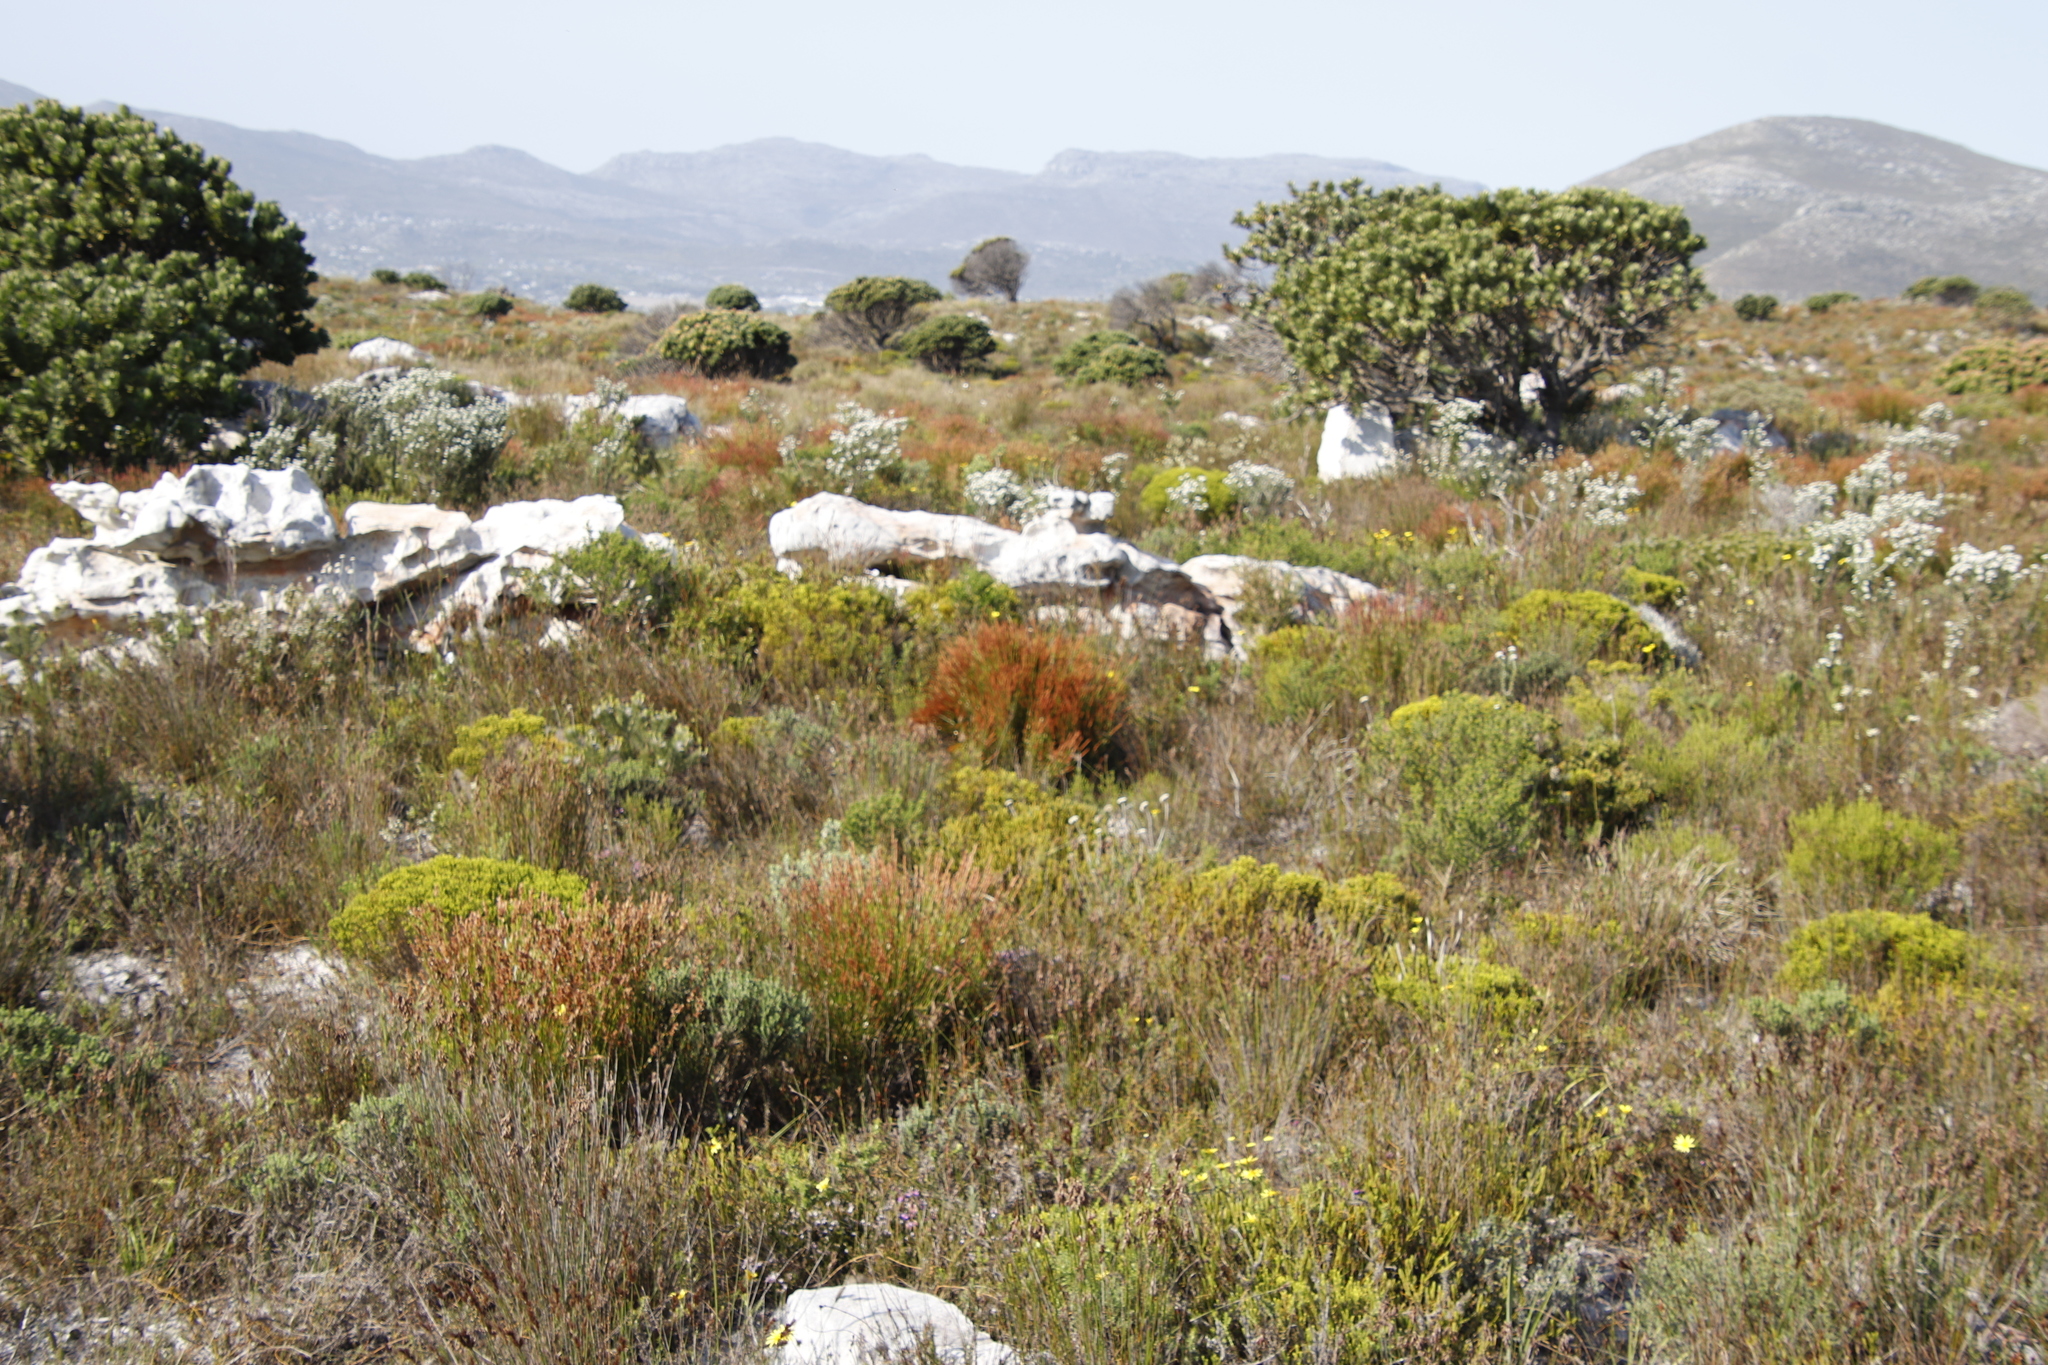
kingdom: Plantae
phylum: Tracheophyta
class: Magnoliopsida
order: Proteales
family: Proteaceae
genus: Leucospermum
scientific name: Leucospermum conocarpodendron
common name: Tree pincushion
